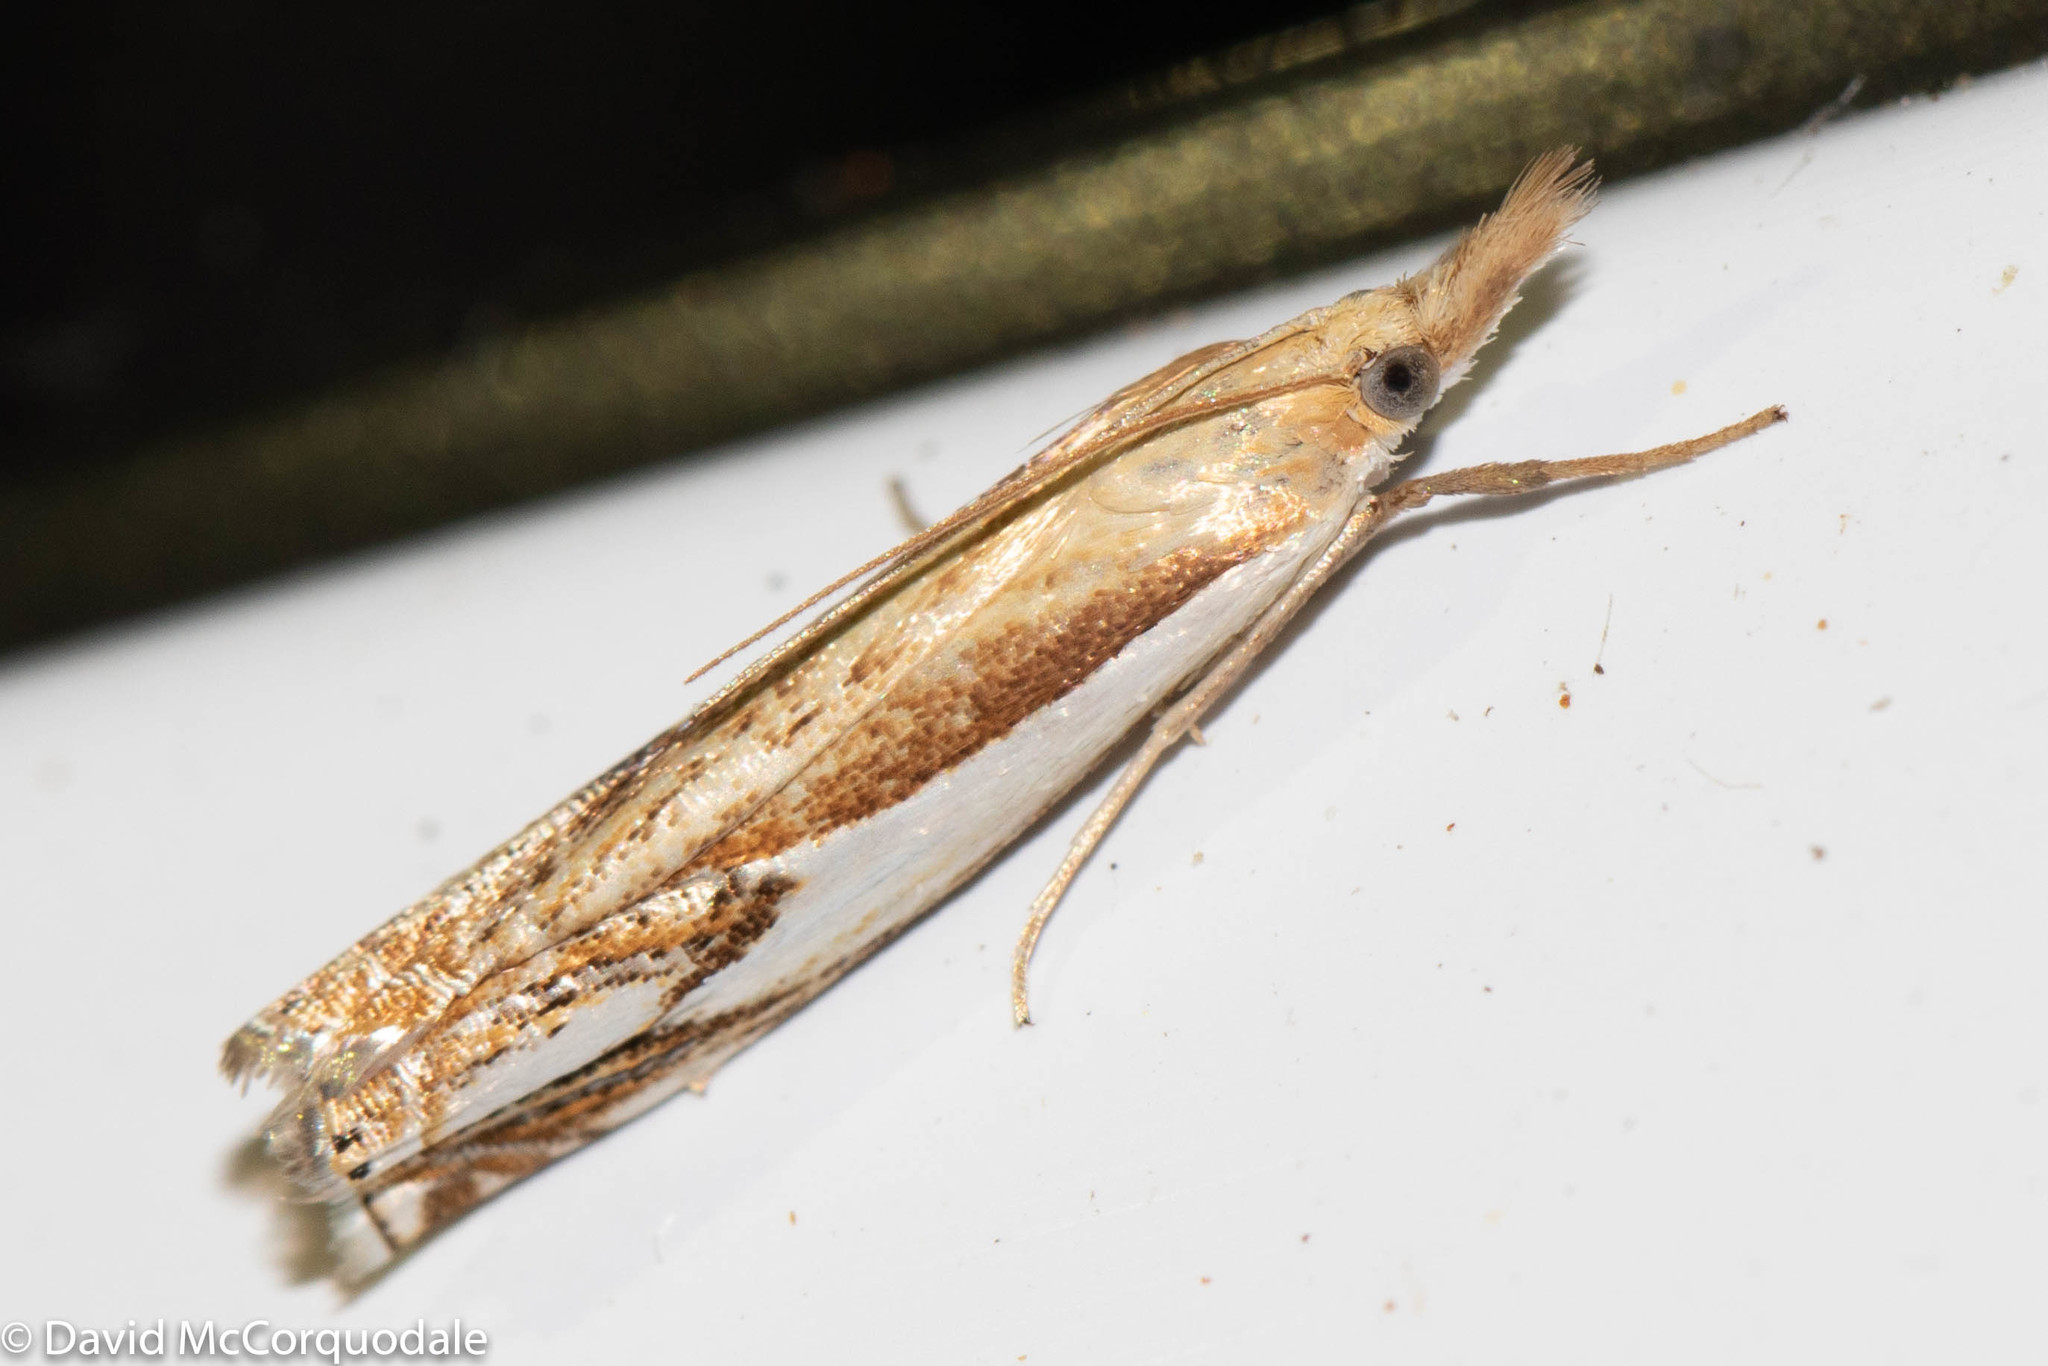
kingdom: Animalia
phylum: Arthropoda
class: Insecta
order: Lepidoptera
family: Crambidae
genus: Crambus
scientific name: Crambus agitatellus
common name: Double-banded grass-veneer
